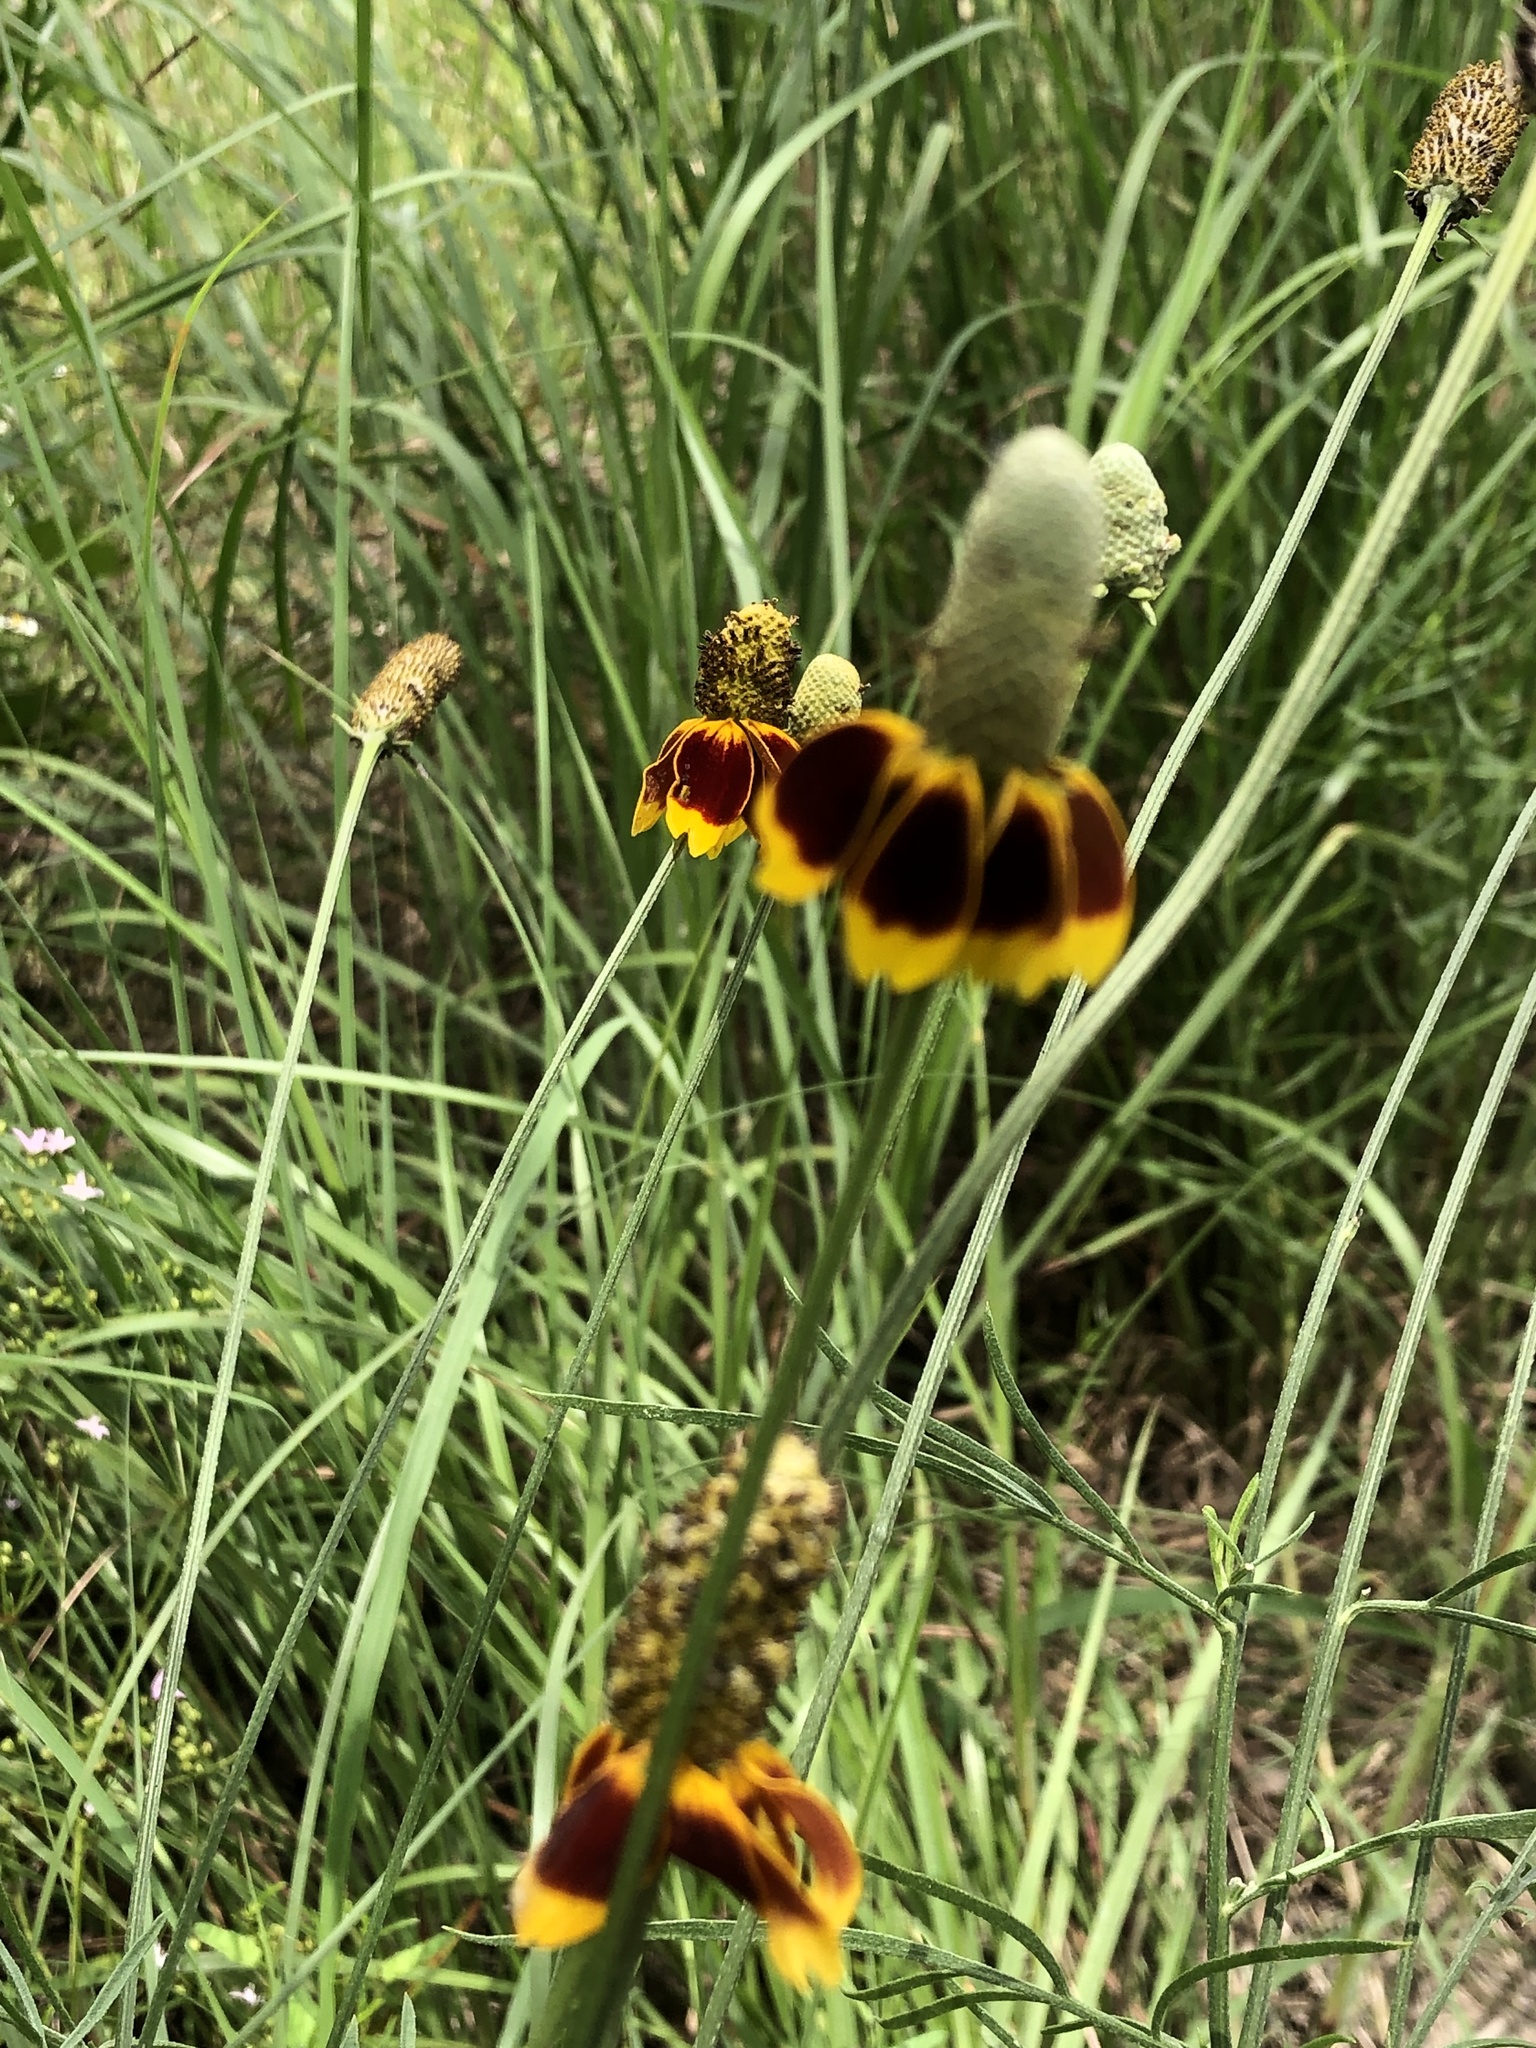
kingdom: Plantae
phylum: Tracheophyta
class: Magnoliopsida
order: Asterales
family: Asteraceae
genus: Ratibida
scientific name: Ratibida columnifera
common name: Prairie coneflower
